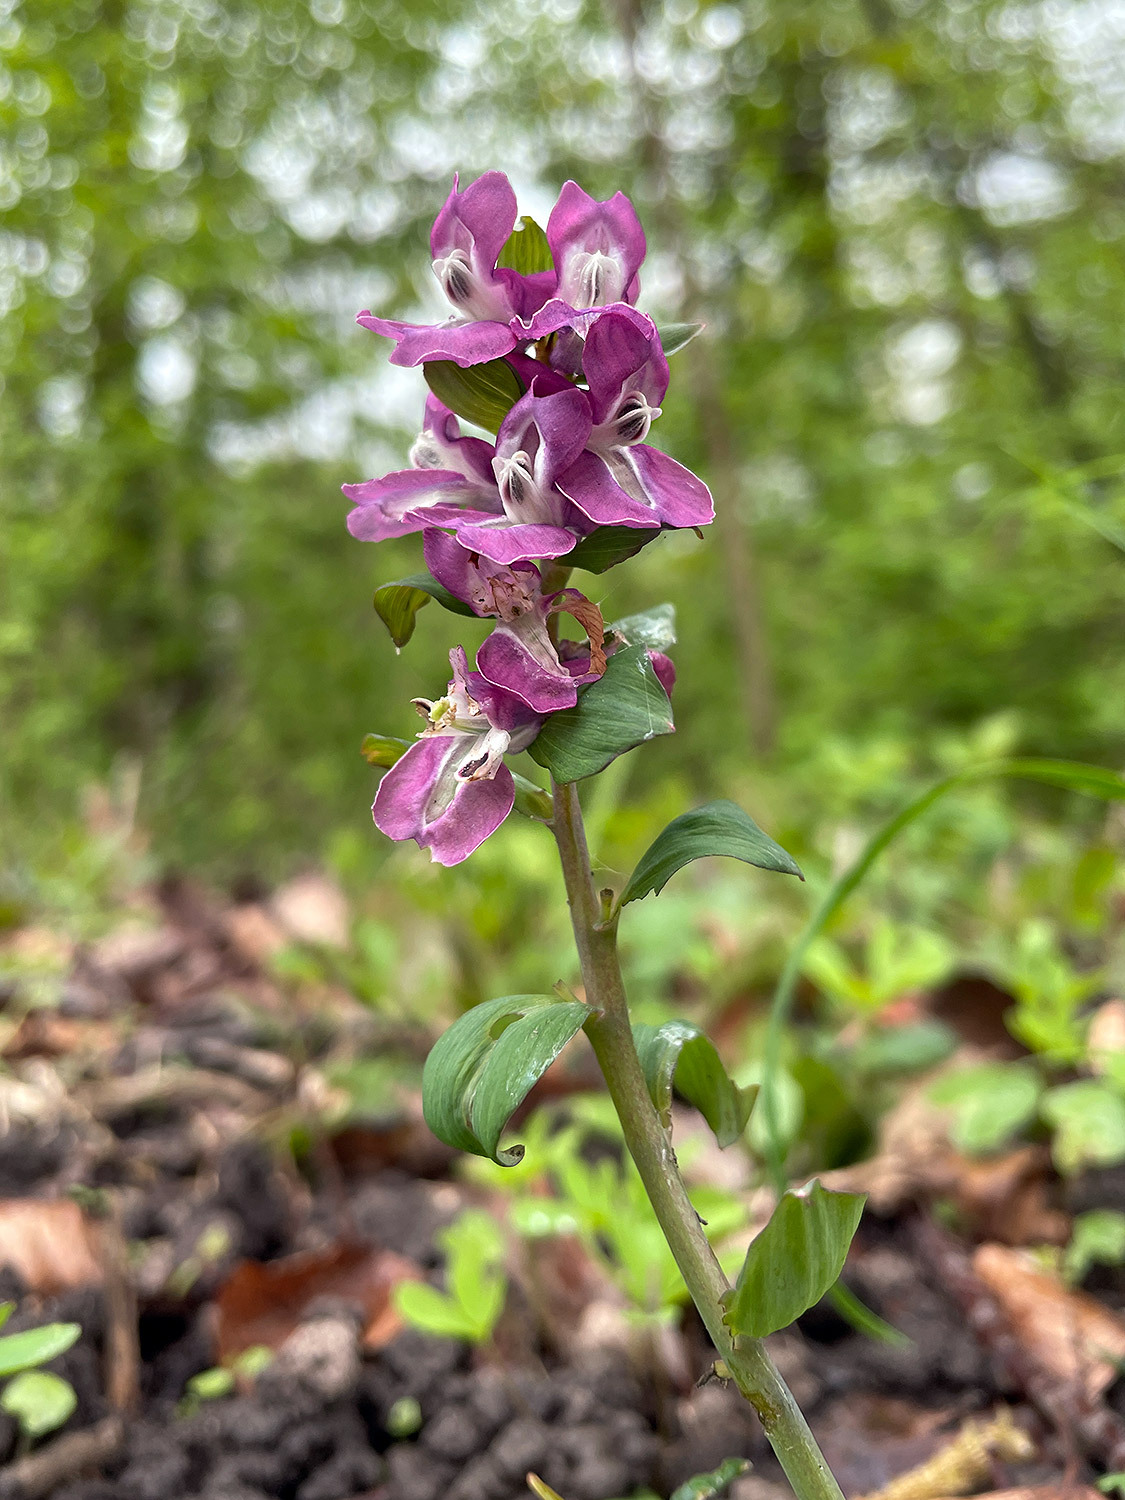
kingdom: Plantae
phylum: Tracheophyta
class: Magnoliopsida
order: Ranunculales
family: Papaveraceae
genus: Corydalis
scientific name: Corydalis cava
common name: Hollowroot
